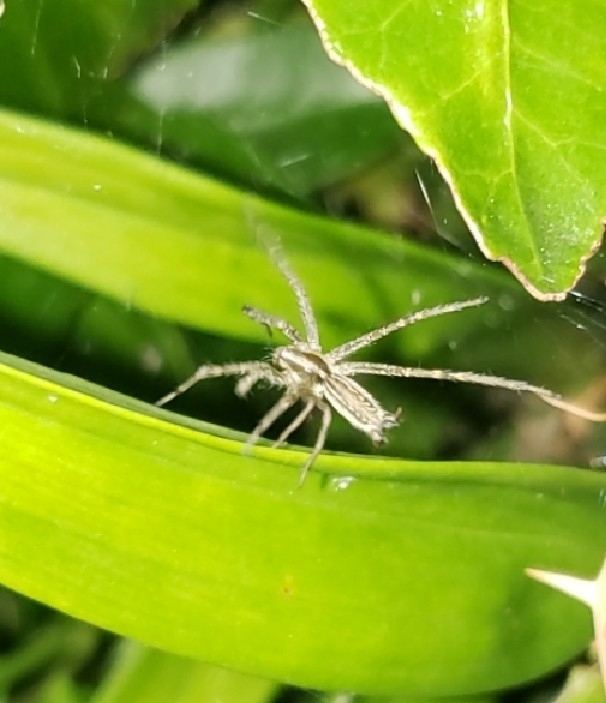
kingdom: Animalia
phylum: Arthropoda
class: Arachnida
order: Araneae
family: Agelenidae
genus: Agelenopsis
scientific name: Agelenopsis
